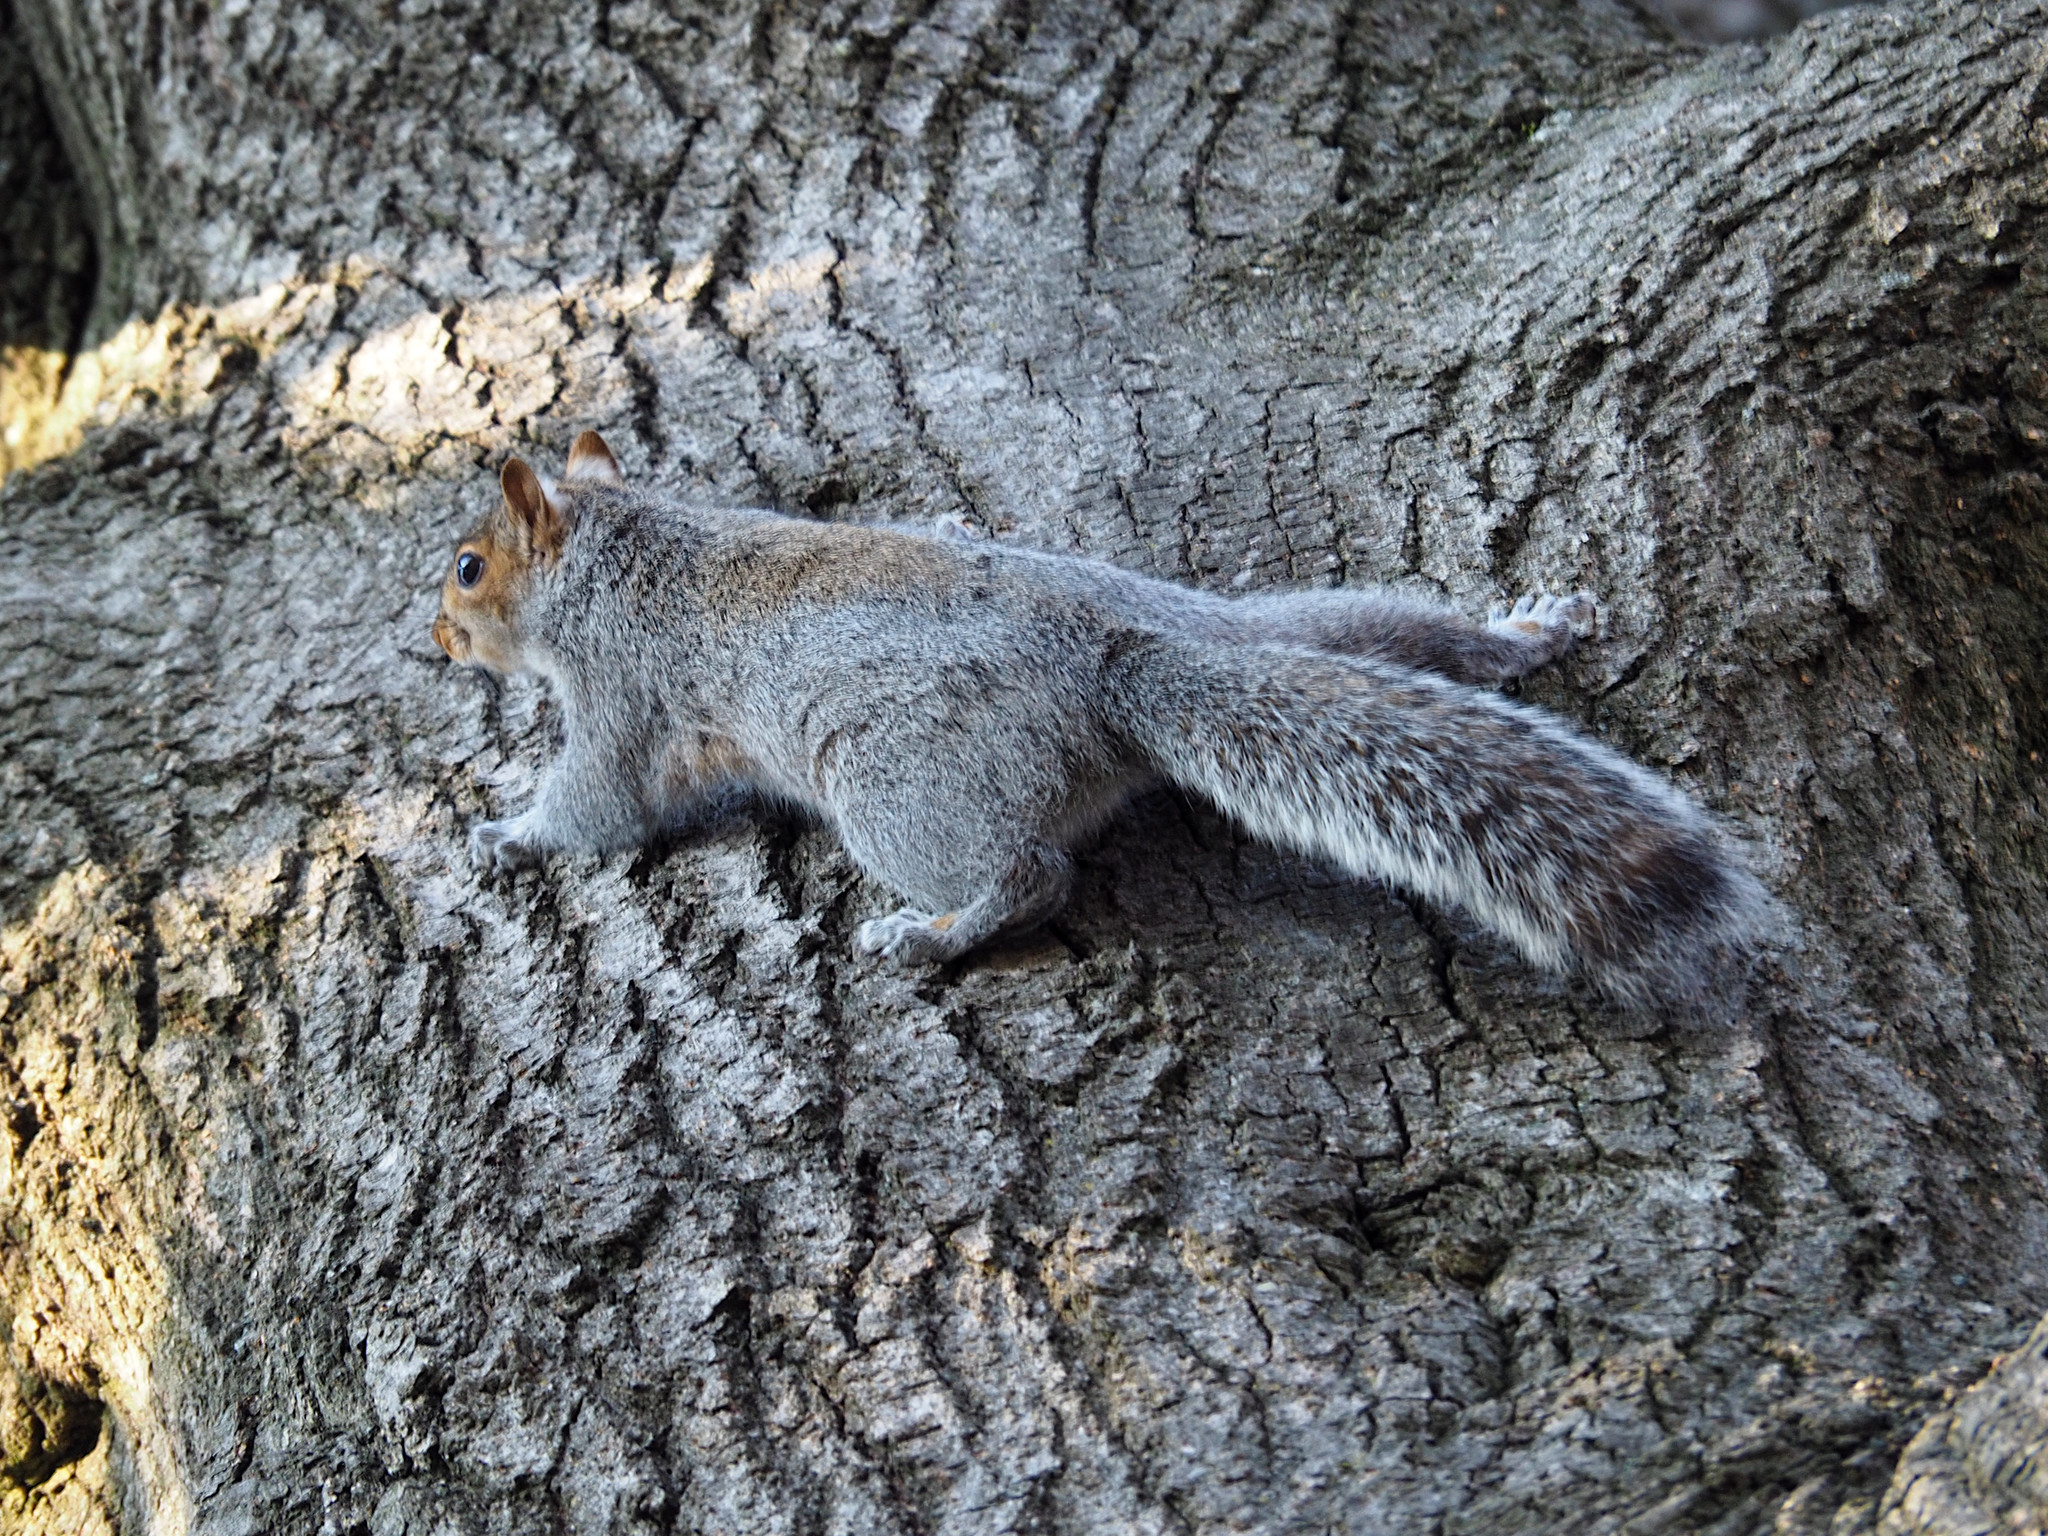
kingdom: Animalia
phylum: Chordata
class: Mammalia
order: Rodentia
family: Sciuridae
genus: Sciurus
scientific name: Sciurus carolinensis
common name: Eastern gray squirrel
